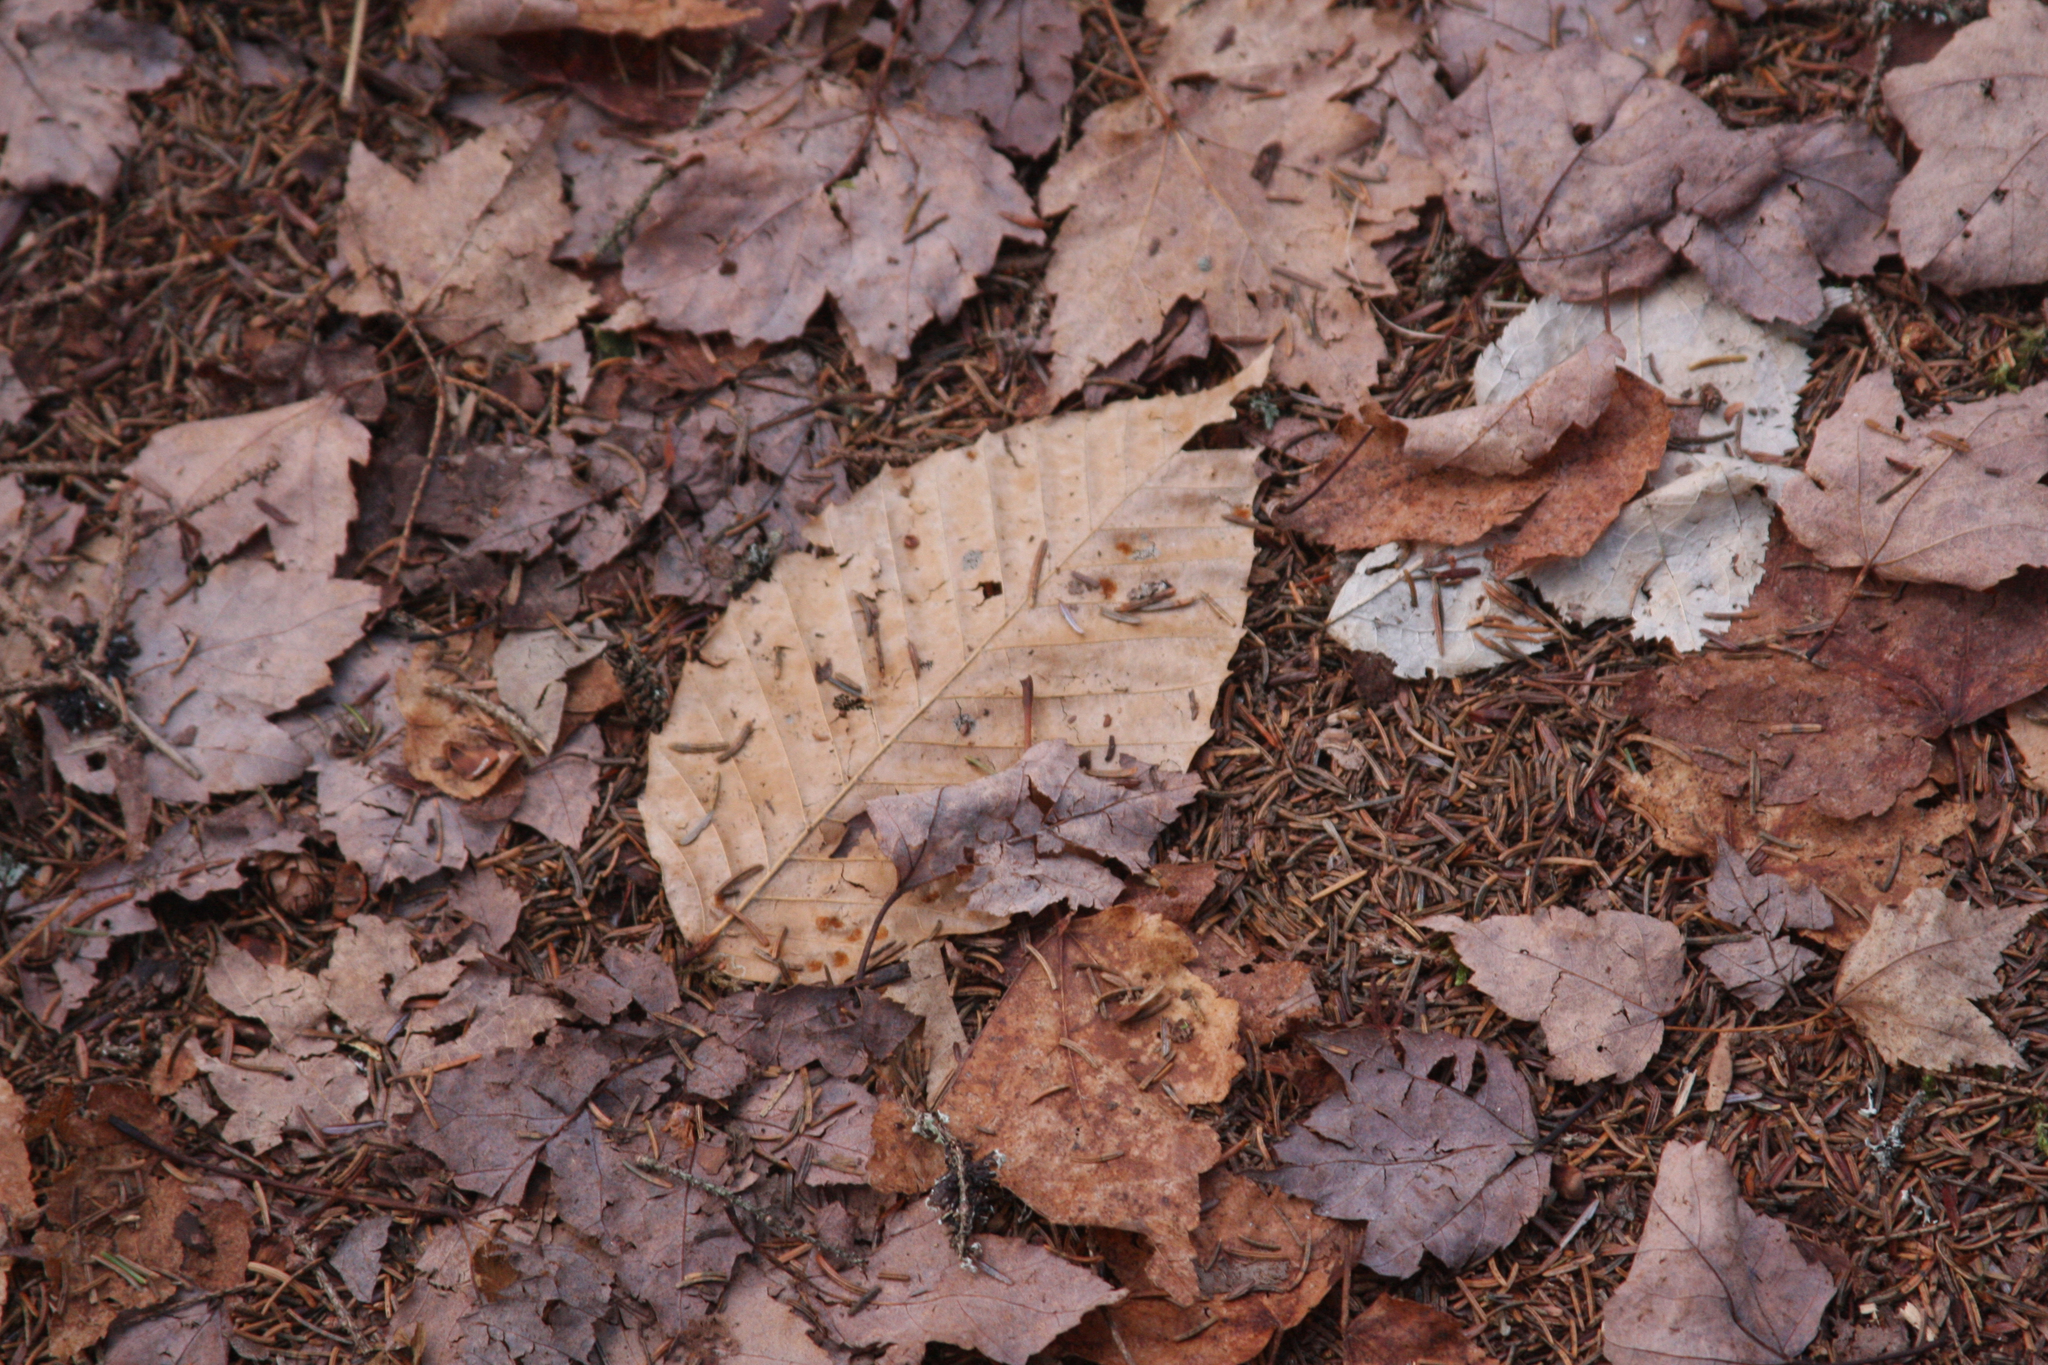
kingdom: Plantae
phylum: Tracheophyta
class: Magnoliopsida
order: Fagales
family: Fagaceae
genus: Fagus
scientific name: Fagus grandifolia
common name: American beech
